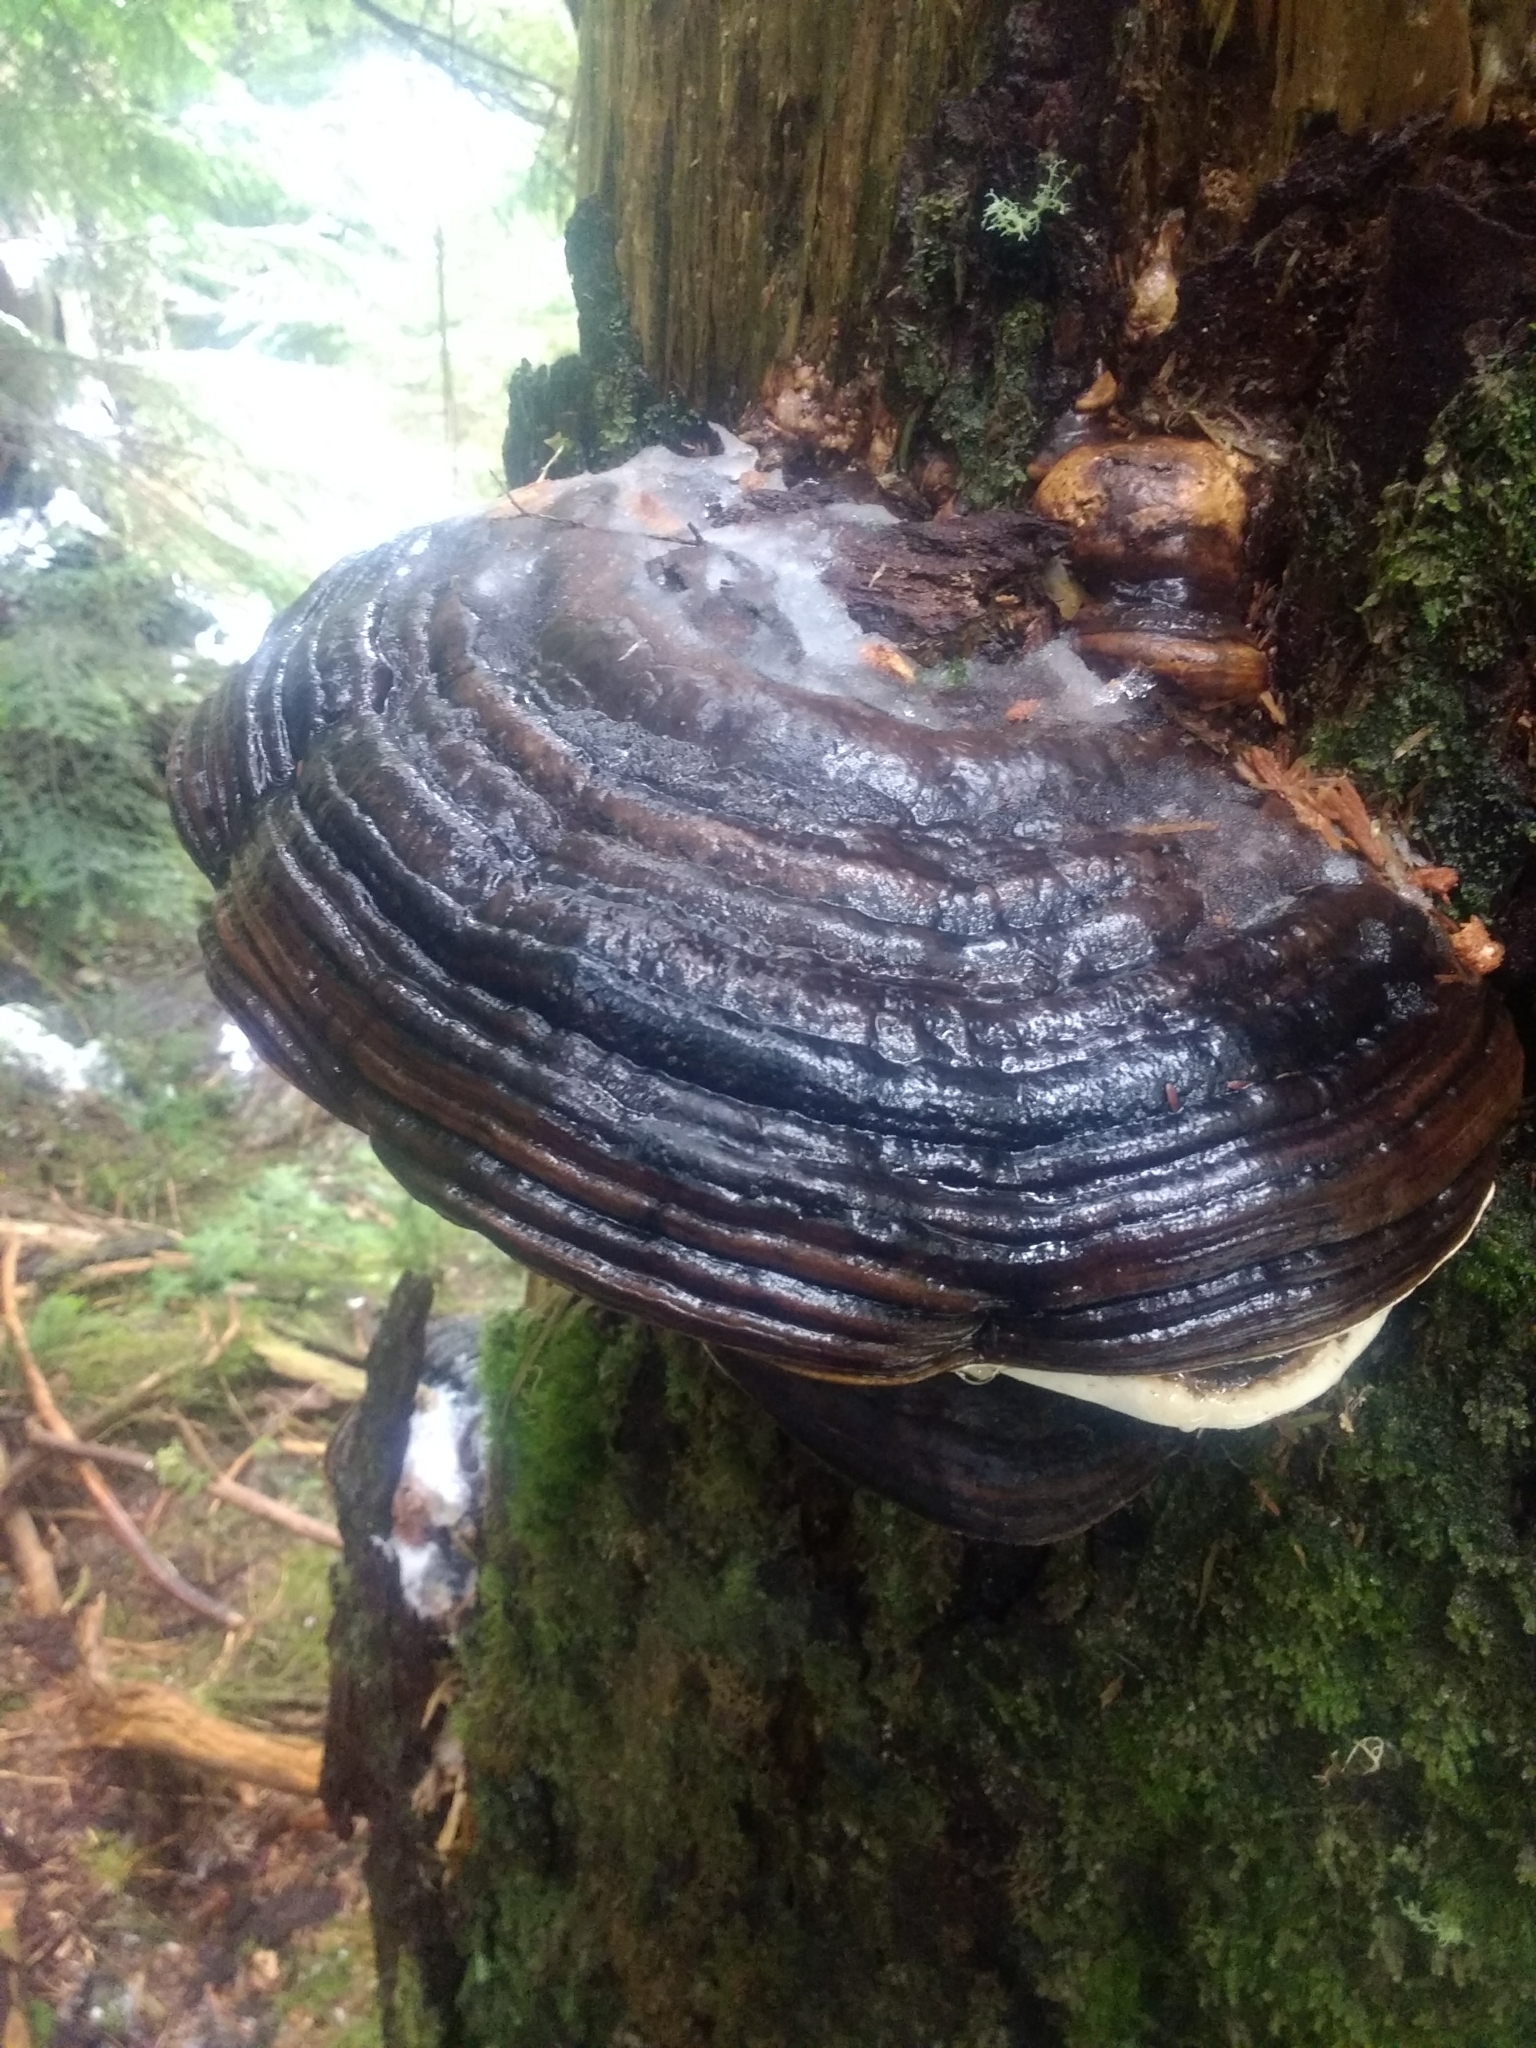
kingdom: Fungi
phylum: Basidiomycota
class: Agaricomycetes
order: Polyporales
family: Fomitopsidaceae
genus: Fomitopsis
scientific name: Fomitopsis ochracea
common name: American brown fomitopsis
